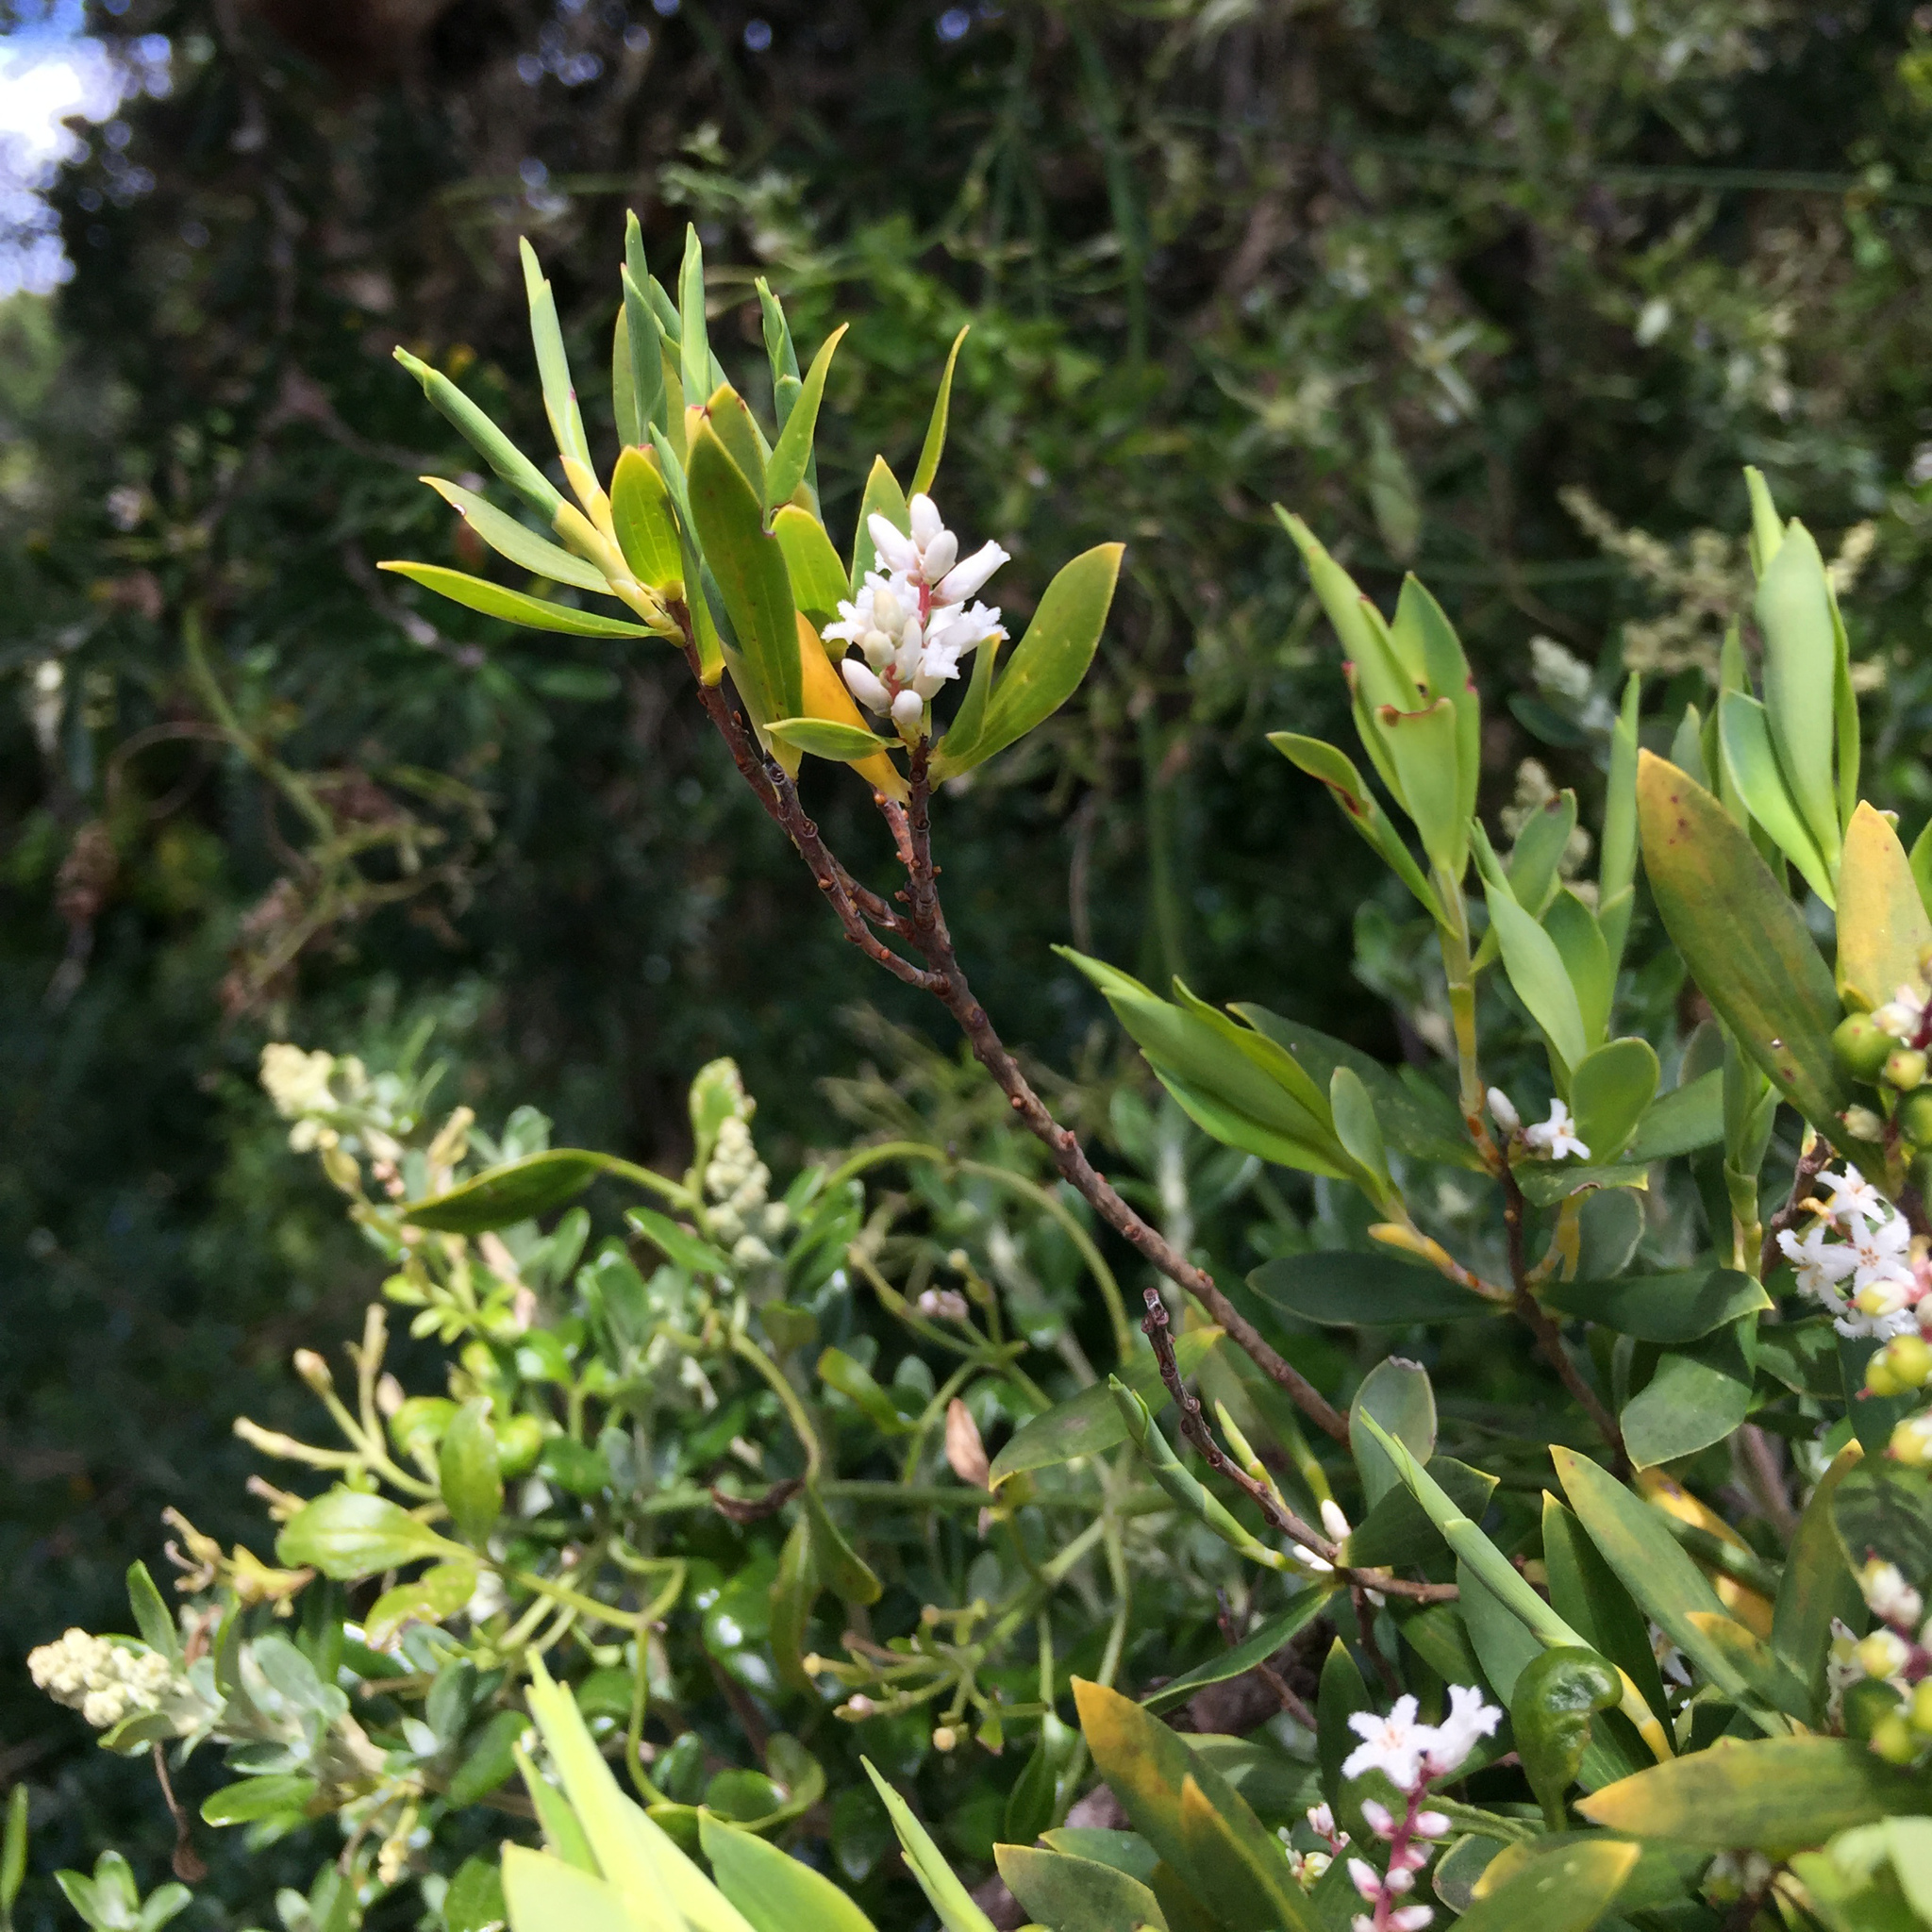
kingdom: Plantae
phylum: Tracheophyta
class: Magnoliopsida
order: Ericales
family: Ericaceae
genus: Leptecophylla
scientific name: Leptecophylla parvifolia
